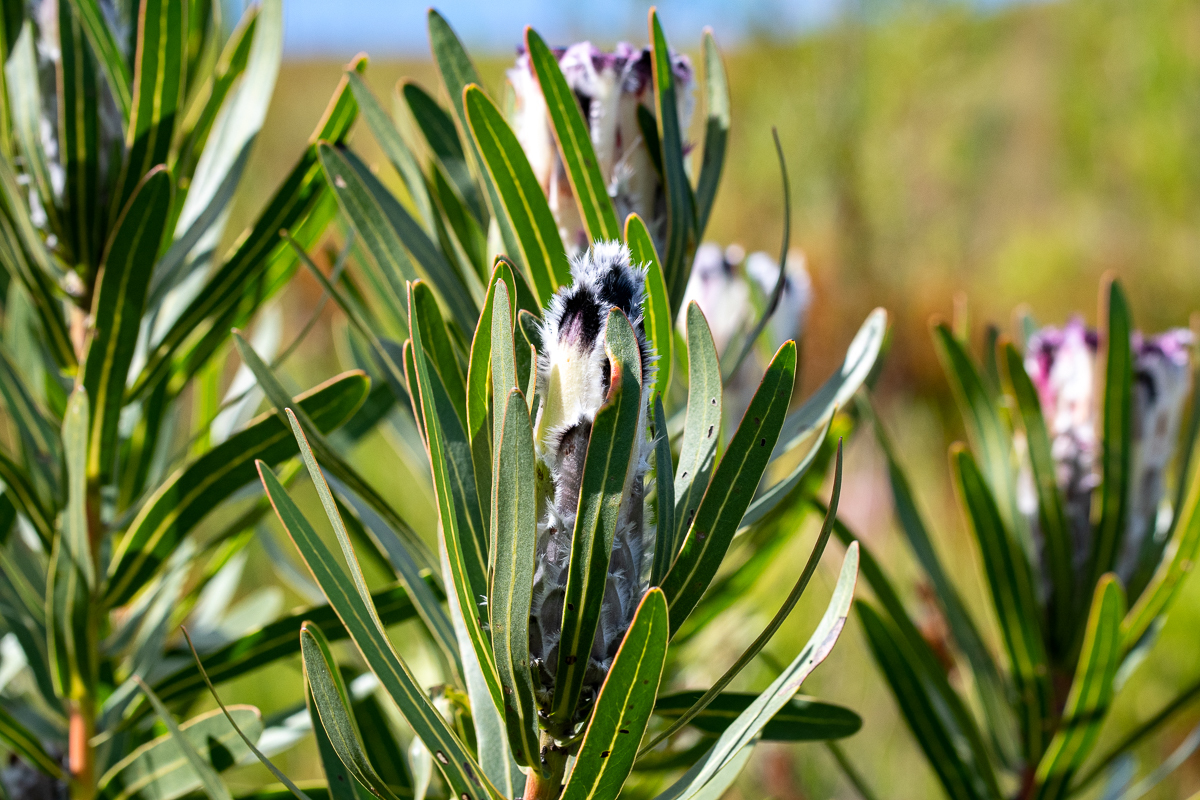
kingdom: Plantae
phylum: Tracheophyta
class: Magnoliopsida
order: Proteales
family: Proteaceae
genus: Protea
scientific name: Protea lepidocarpodendron
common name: Black-bearded protea
